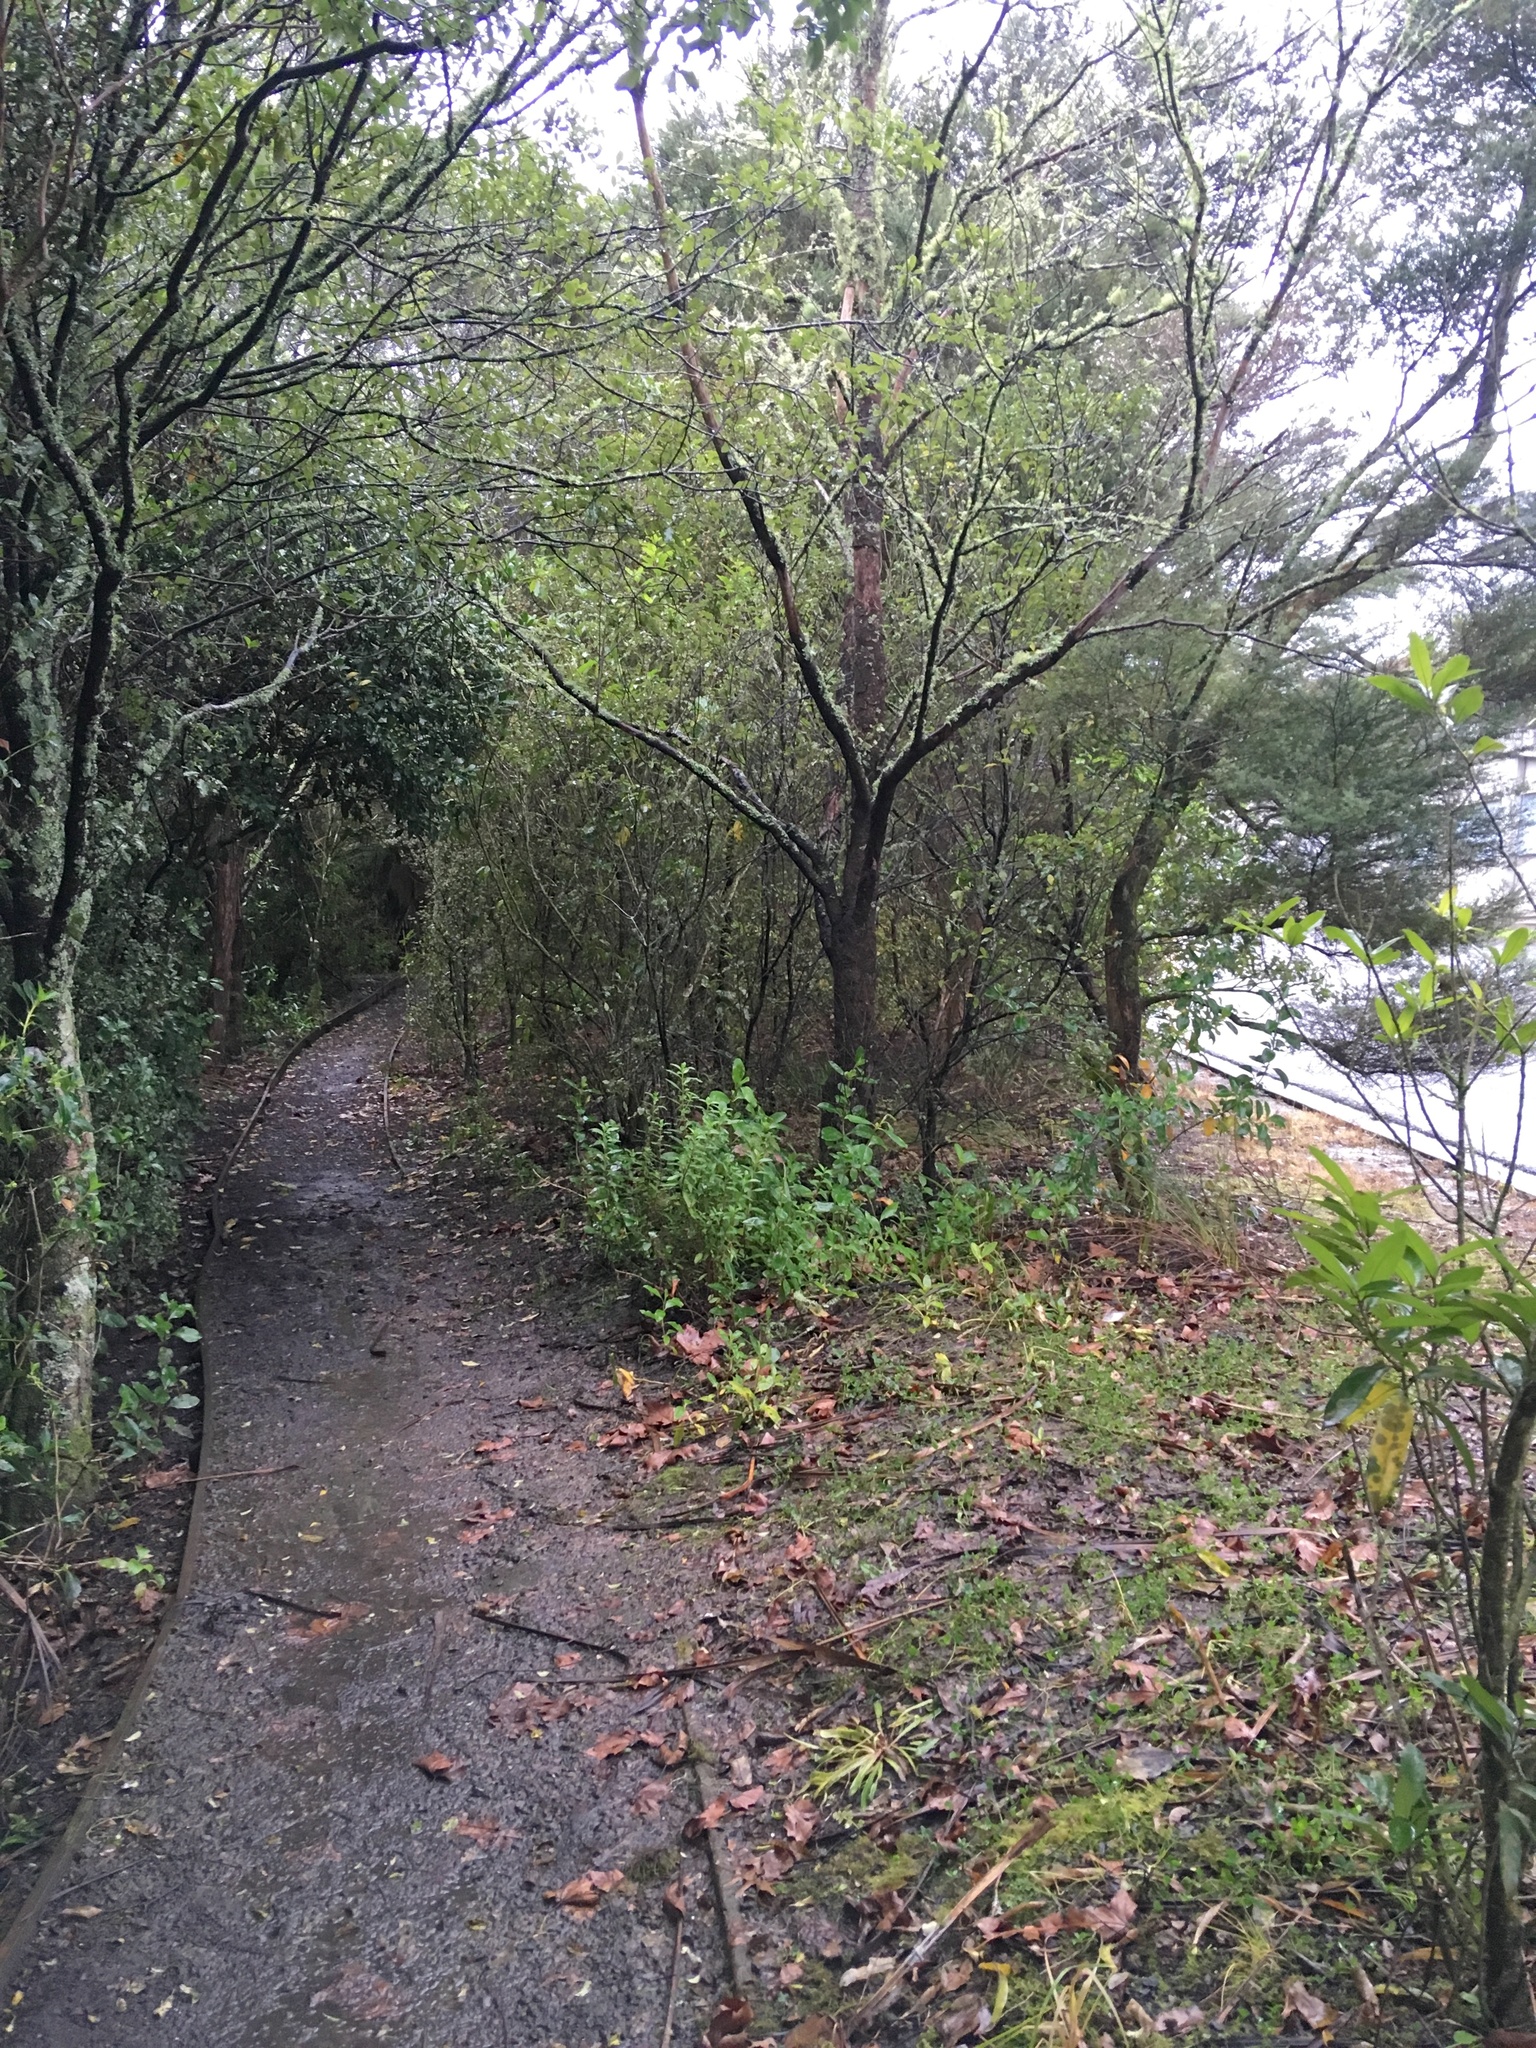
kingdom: Plantae
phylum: Tracheophyta
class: Magnoliopsida
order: Saxifragales
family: Haloragaceae
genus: Haloragis
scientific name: Haloragis erecta
